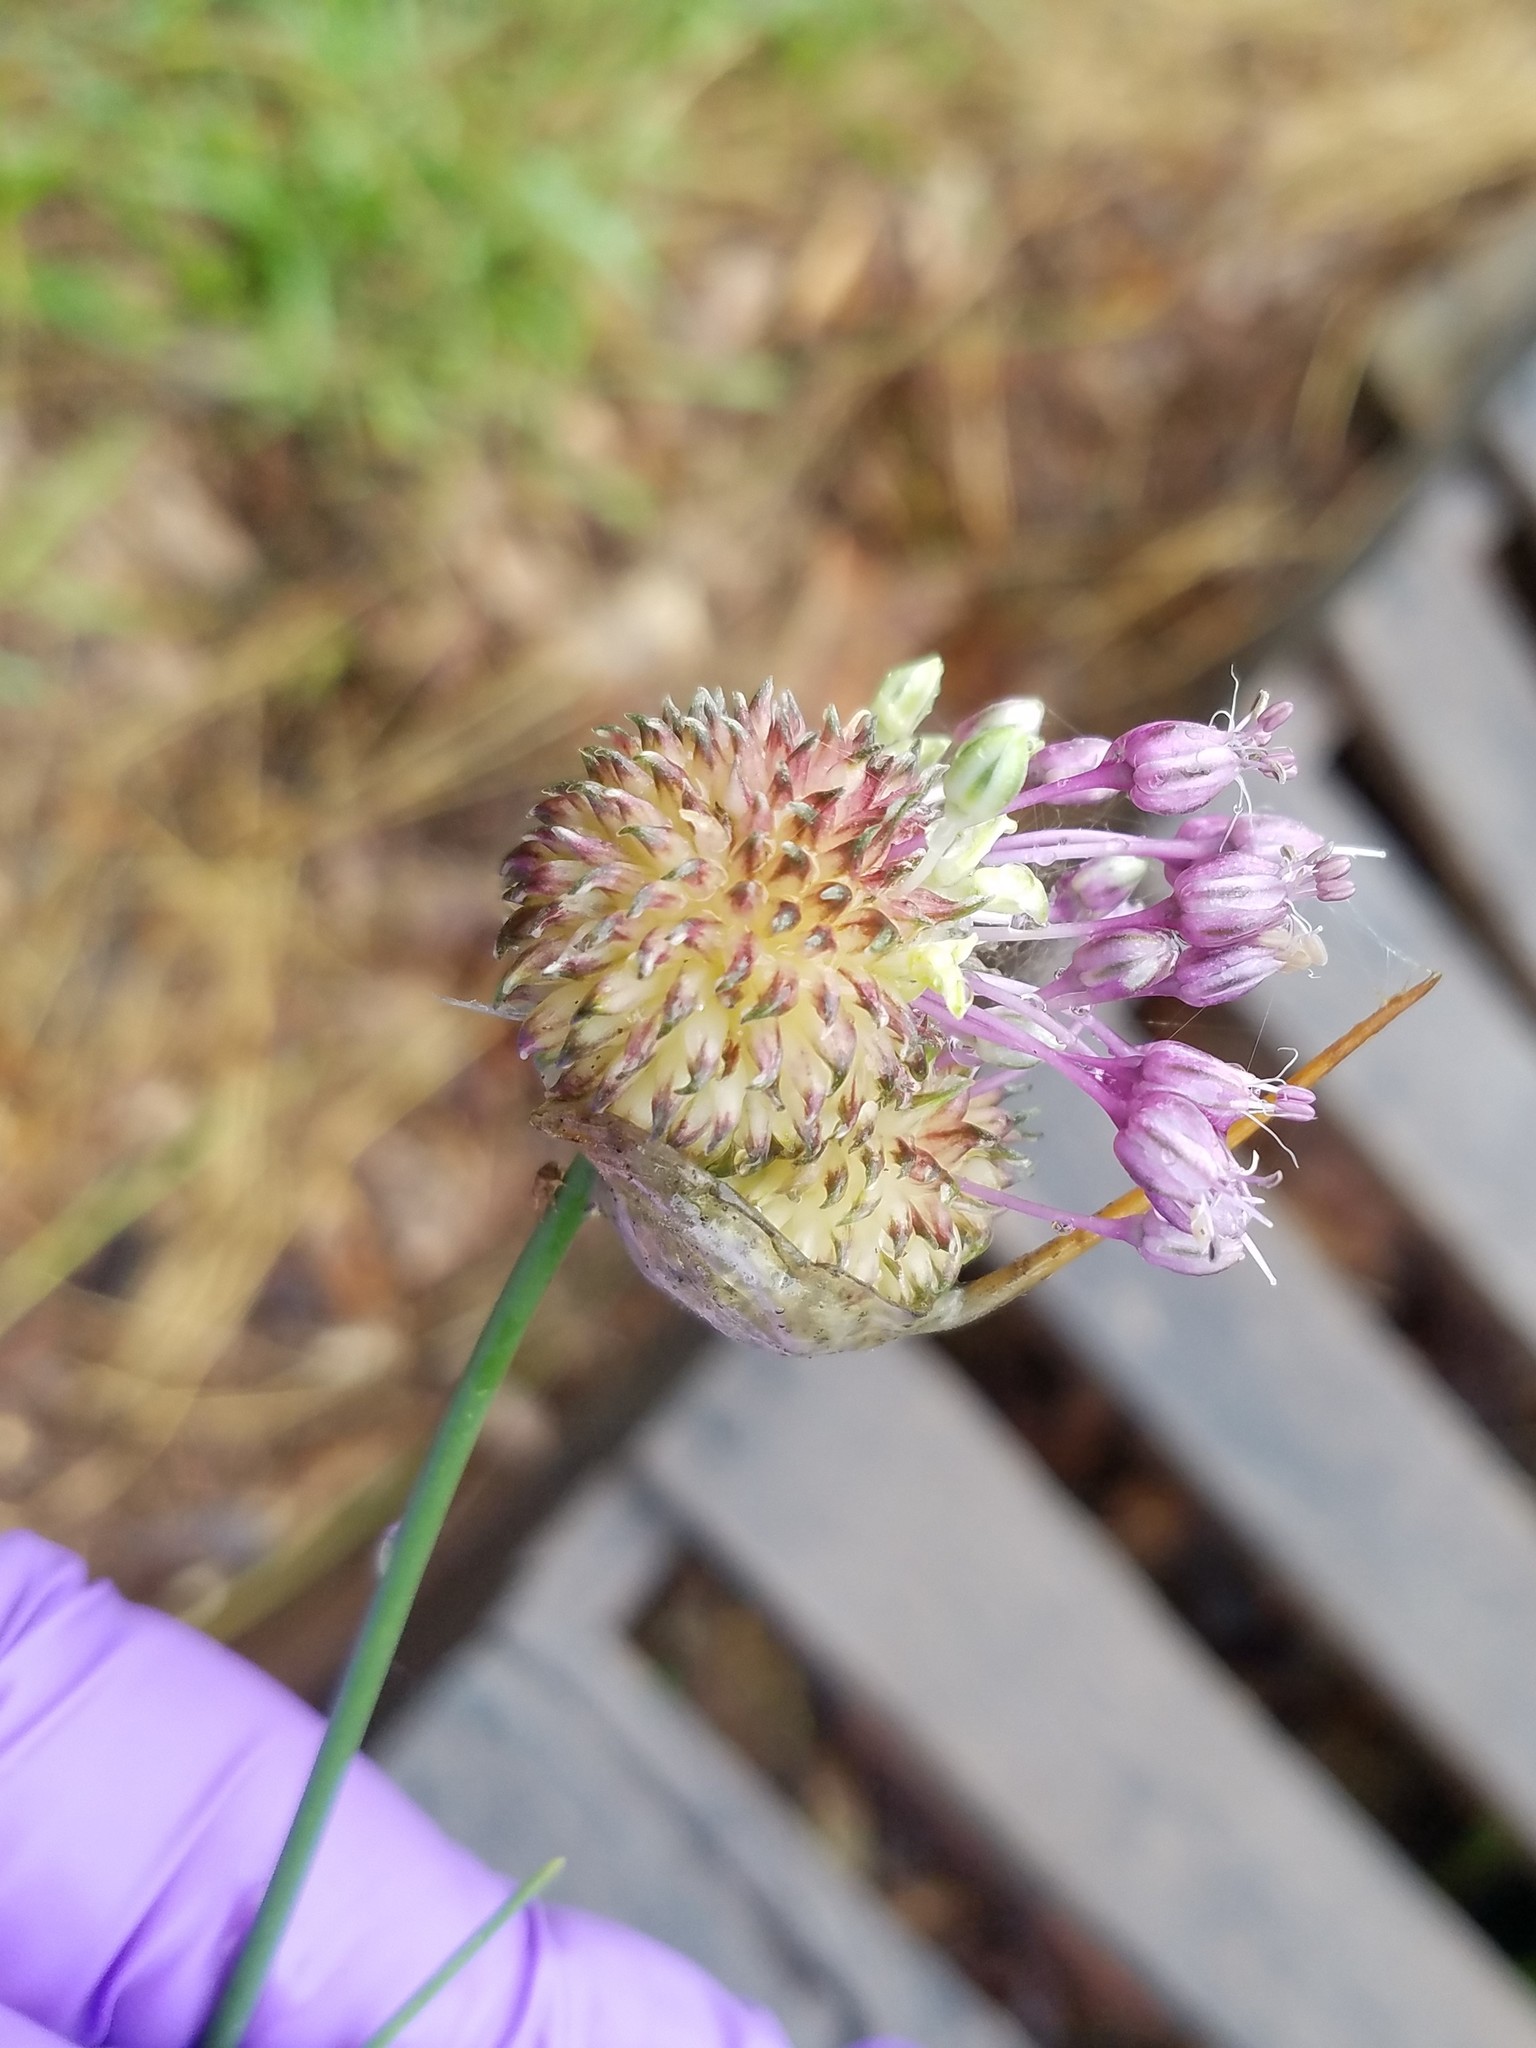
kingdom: Plantae
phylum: Tracheophyta
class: Liliopsida
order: Asparagales
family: Amaryllidaceae
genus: Allium
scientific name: Allium vineale
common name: Crow garlic
